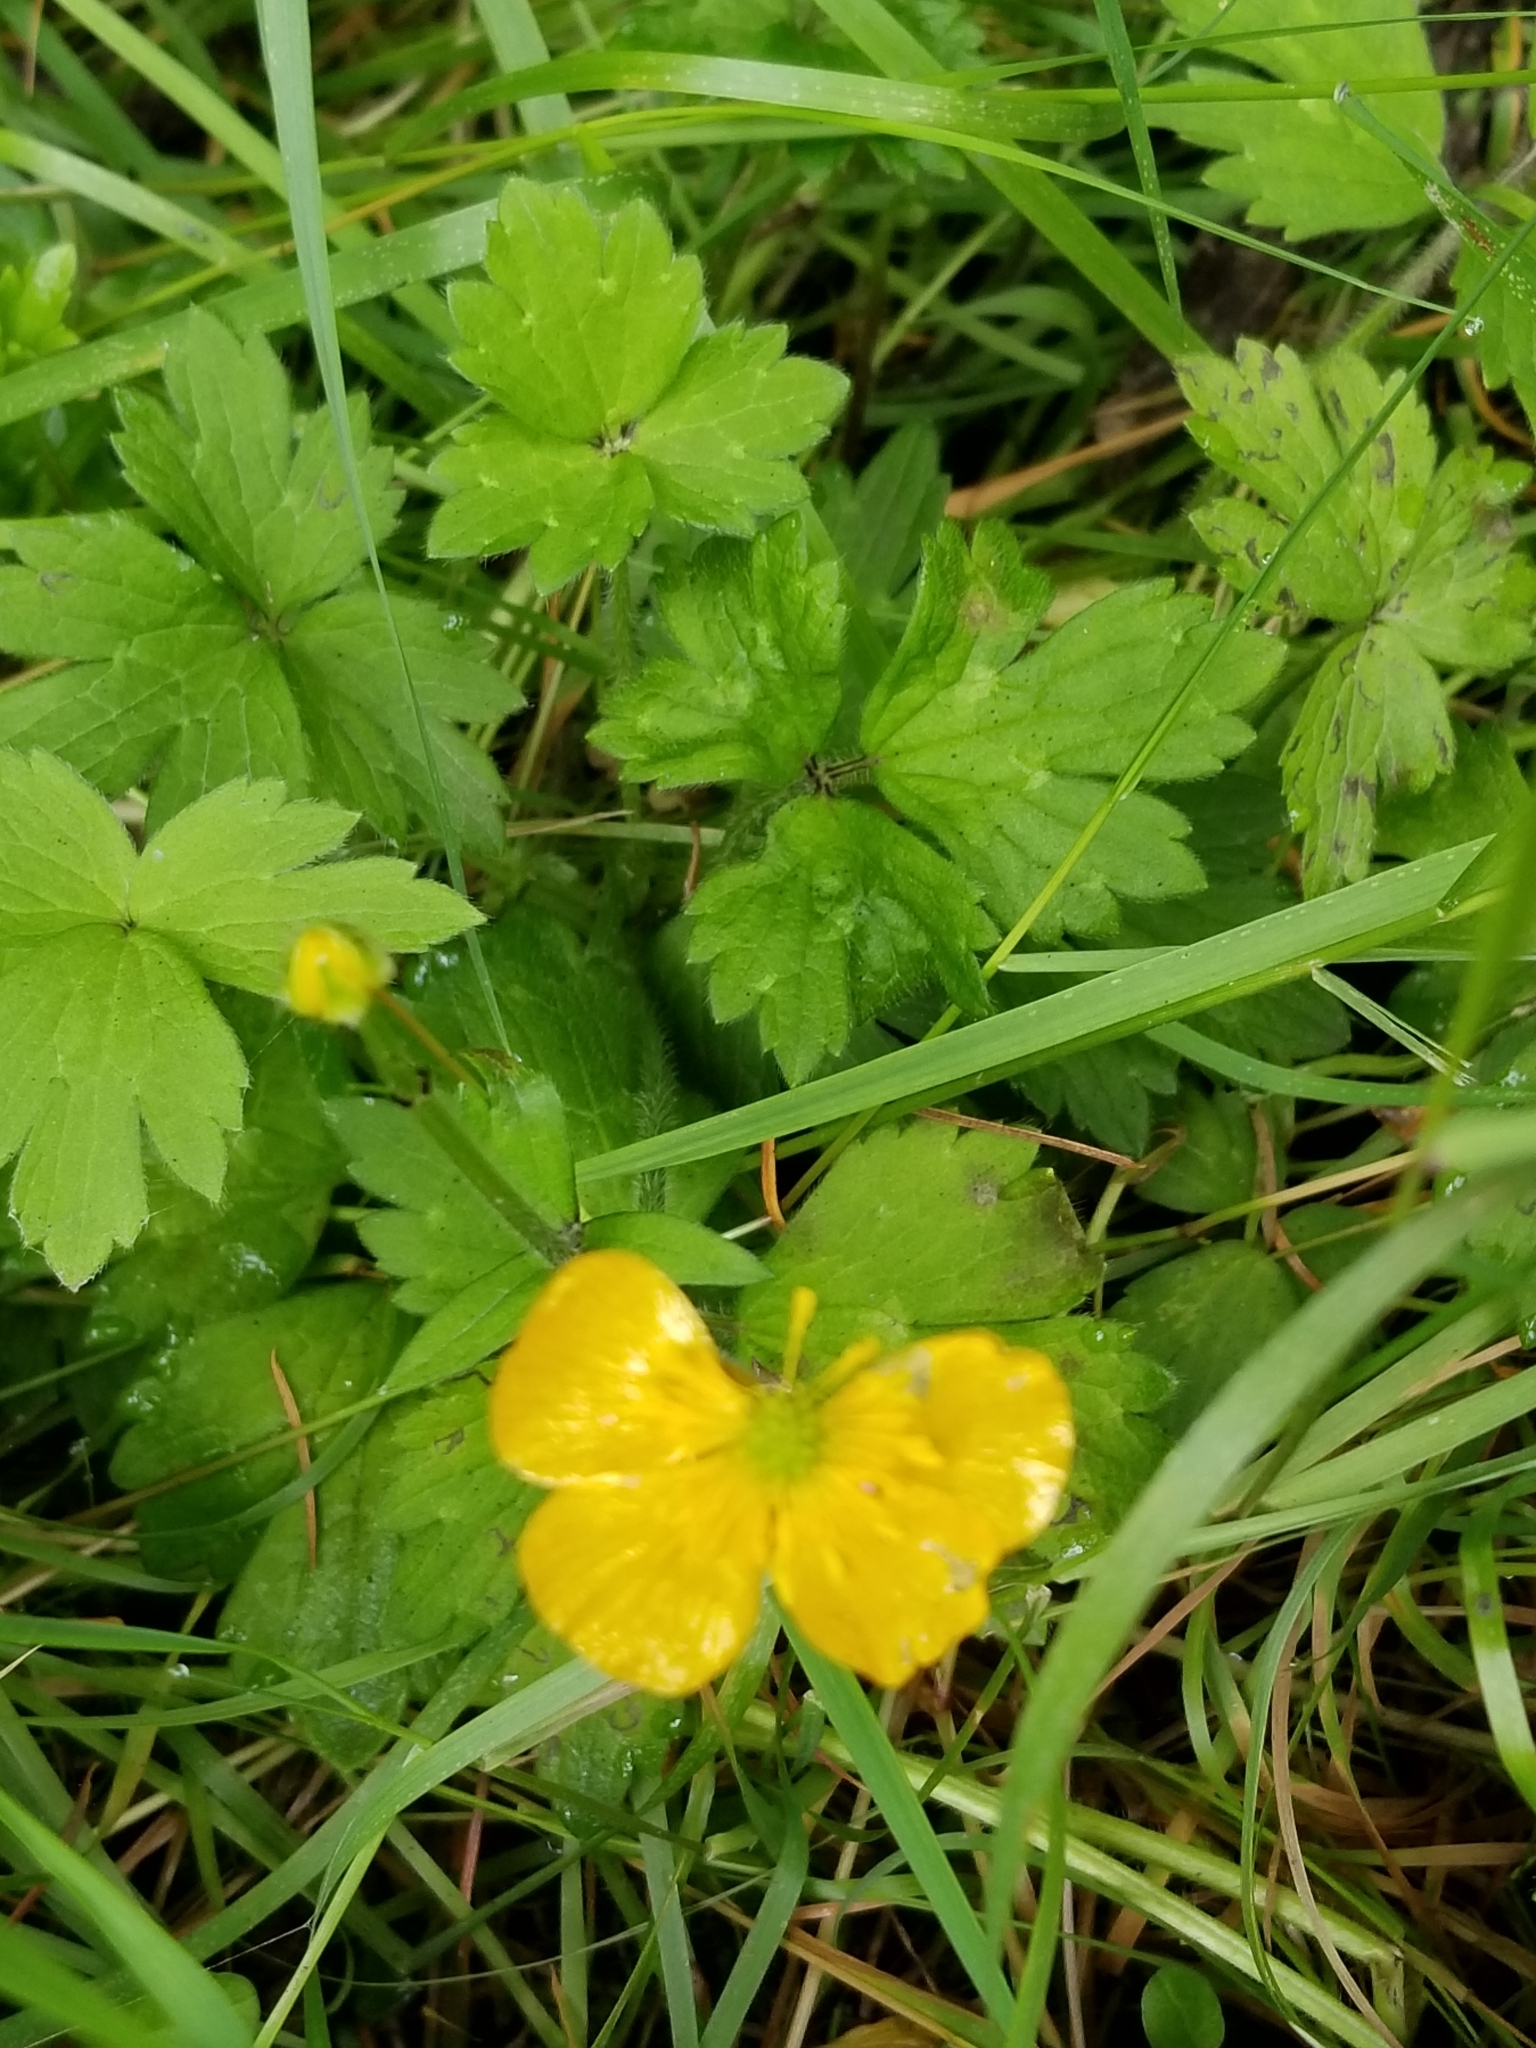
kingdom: Plantae
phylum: Tracheophyta
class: Magnoliopsida
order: Ranunculales
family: Ranunculaceae
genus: Ranunculus
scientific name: Ranunculus repens
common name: Creeping buttercup
